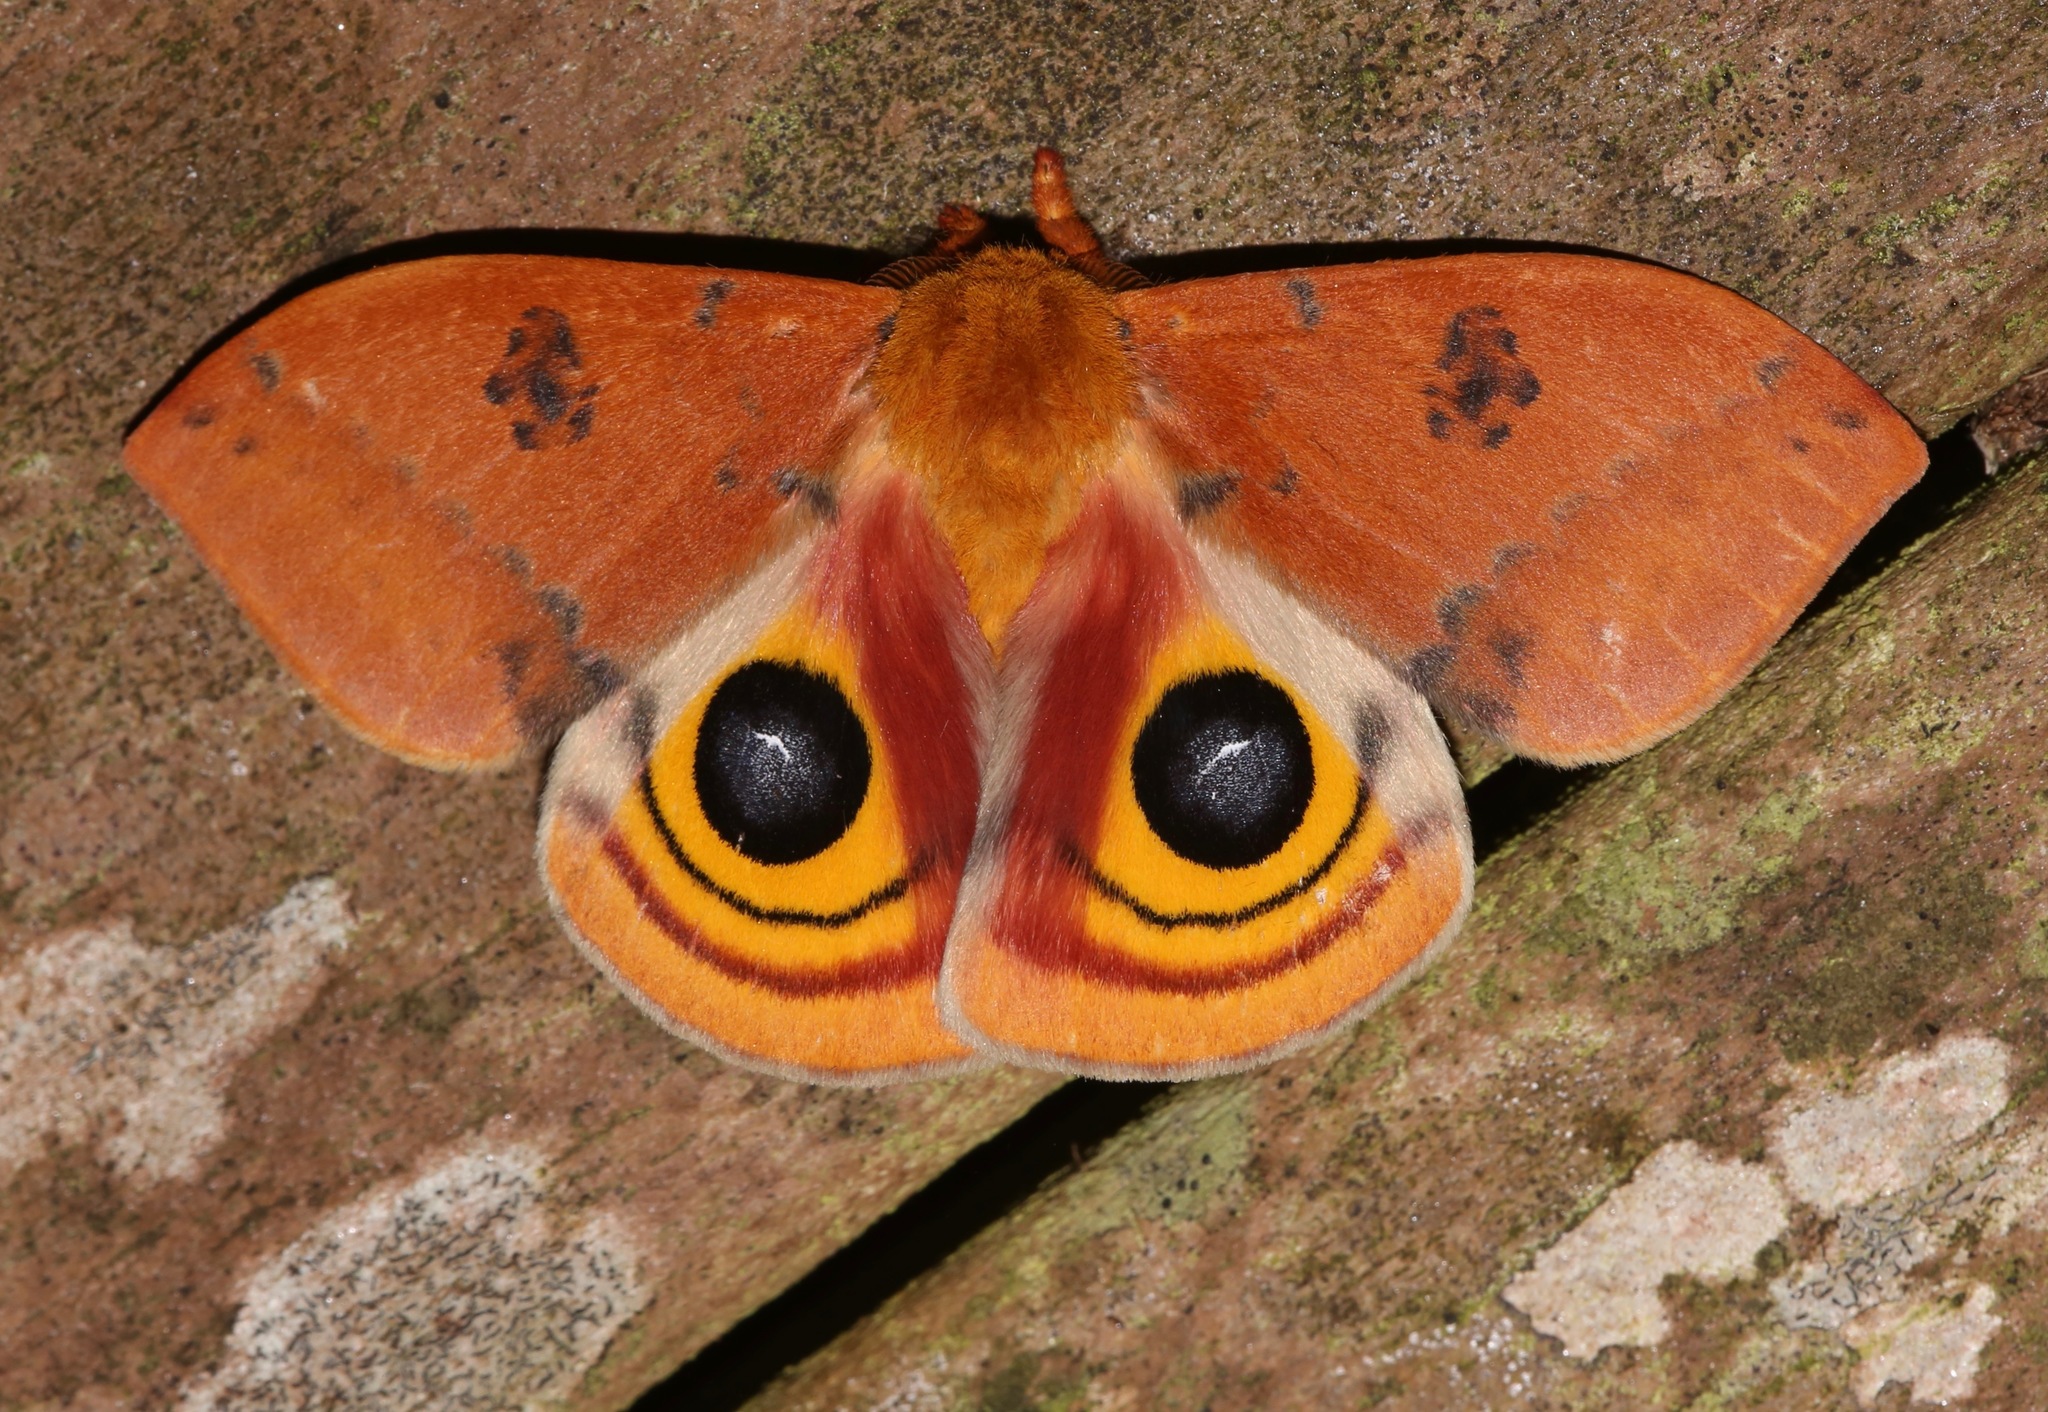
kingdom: Animalia
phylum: Arthropoda
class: Insecta
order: Lepidoptera
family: Saturniidae
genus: Automeris
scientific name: Automeris io
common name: Io moth
